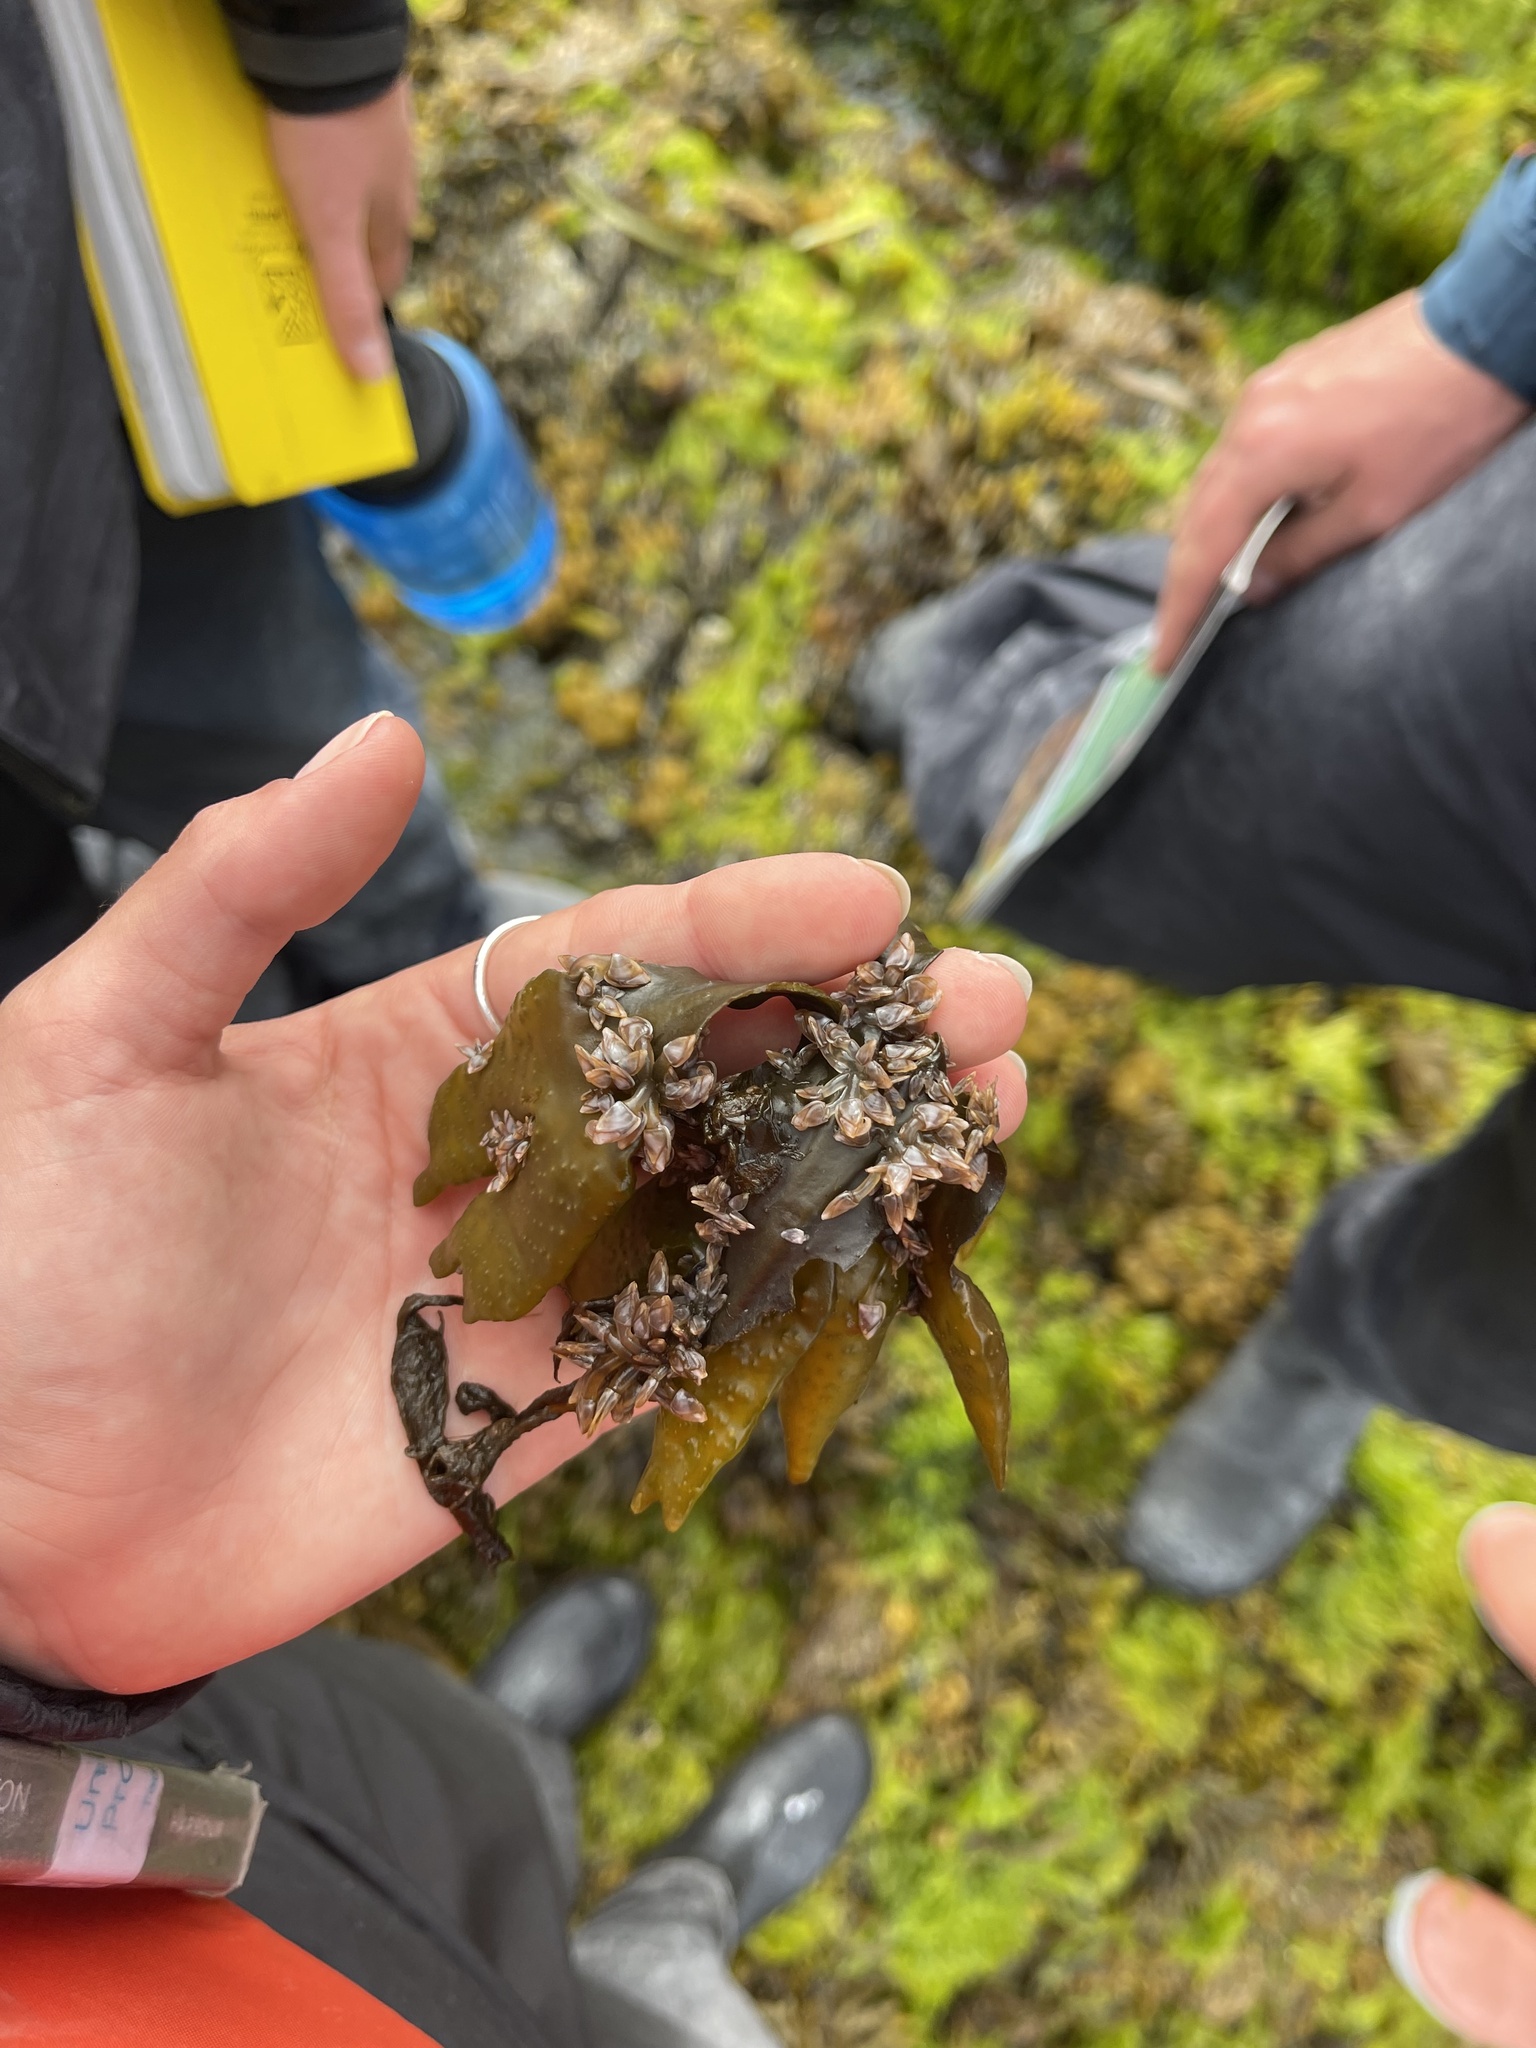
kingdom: Animalia
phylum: Arthropoda
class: Maxillopoda
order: Pedunculata
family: Lepadidae
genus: Lepas
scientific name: Lepas pacifica
